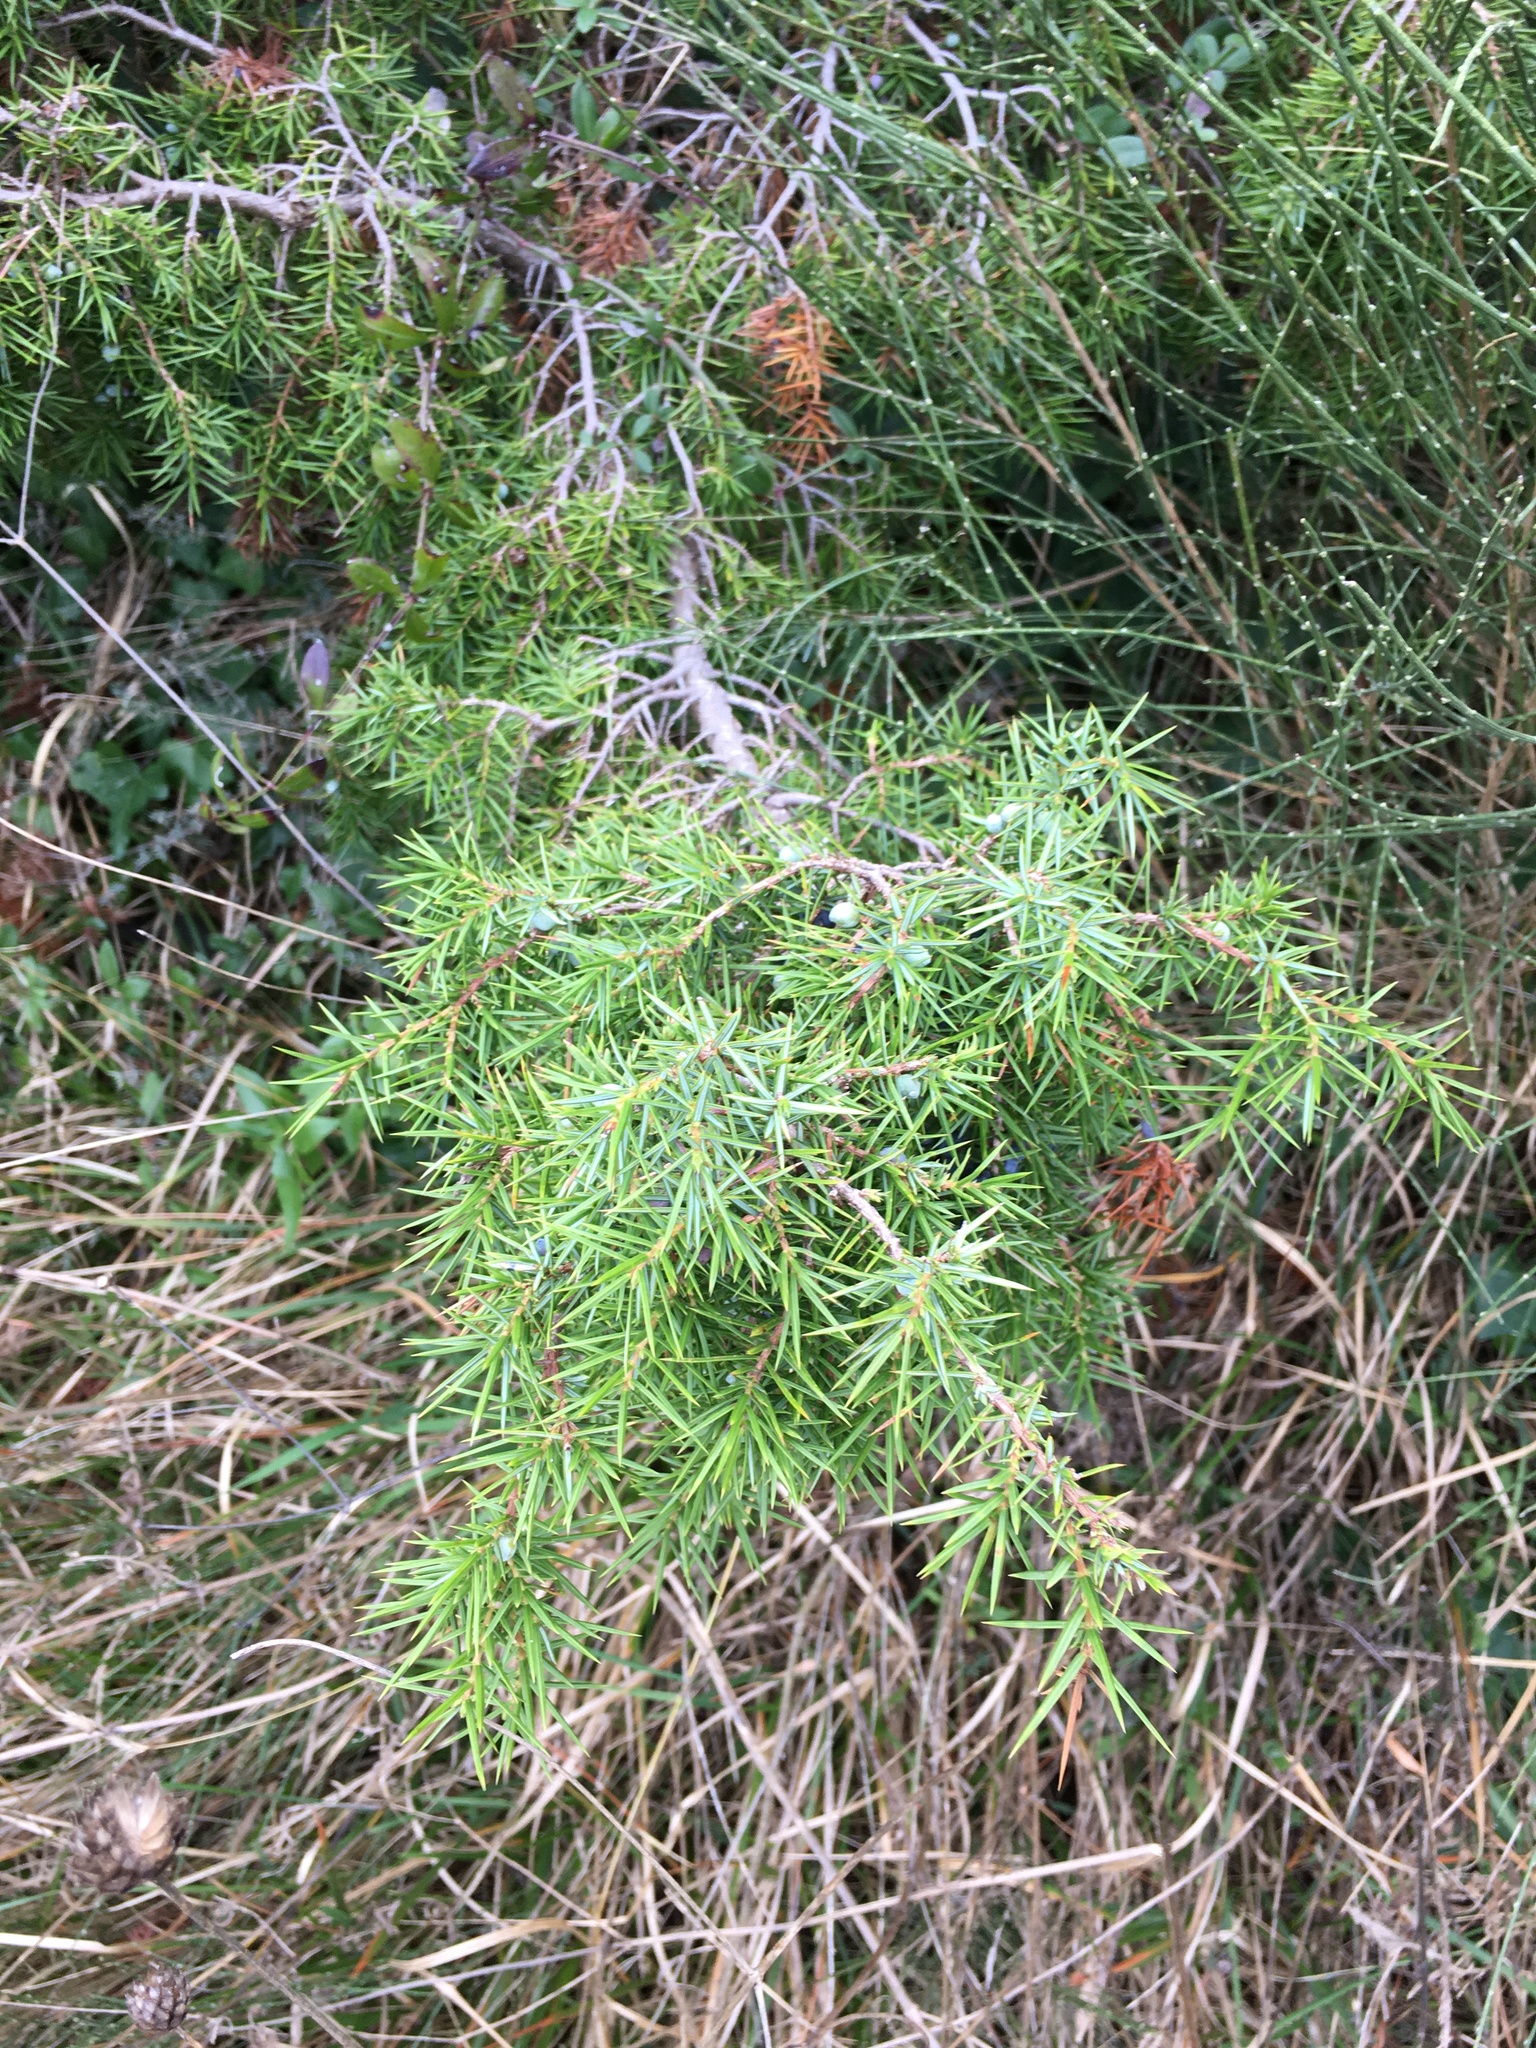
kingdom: Plantae
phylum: Tracheophyta
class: Pinopsida
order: Pinales
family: Cupressaceae
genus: Juniperus
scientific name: Juniperus communis
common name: Common juniper
